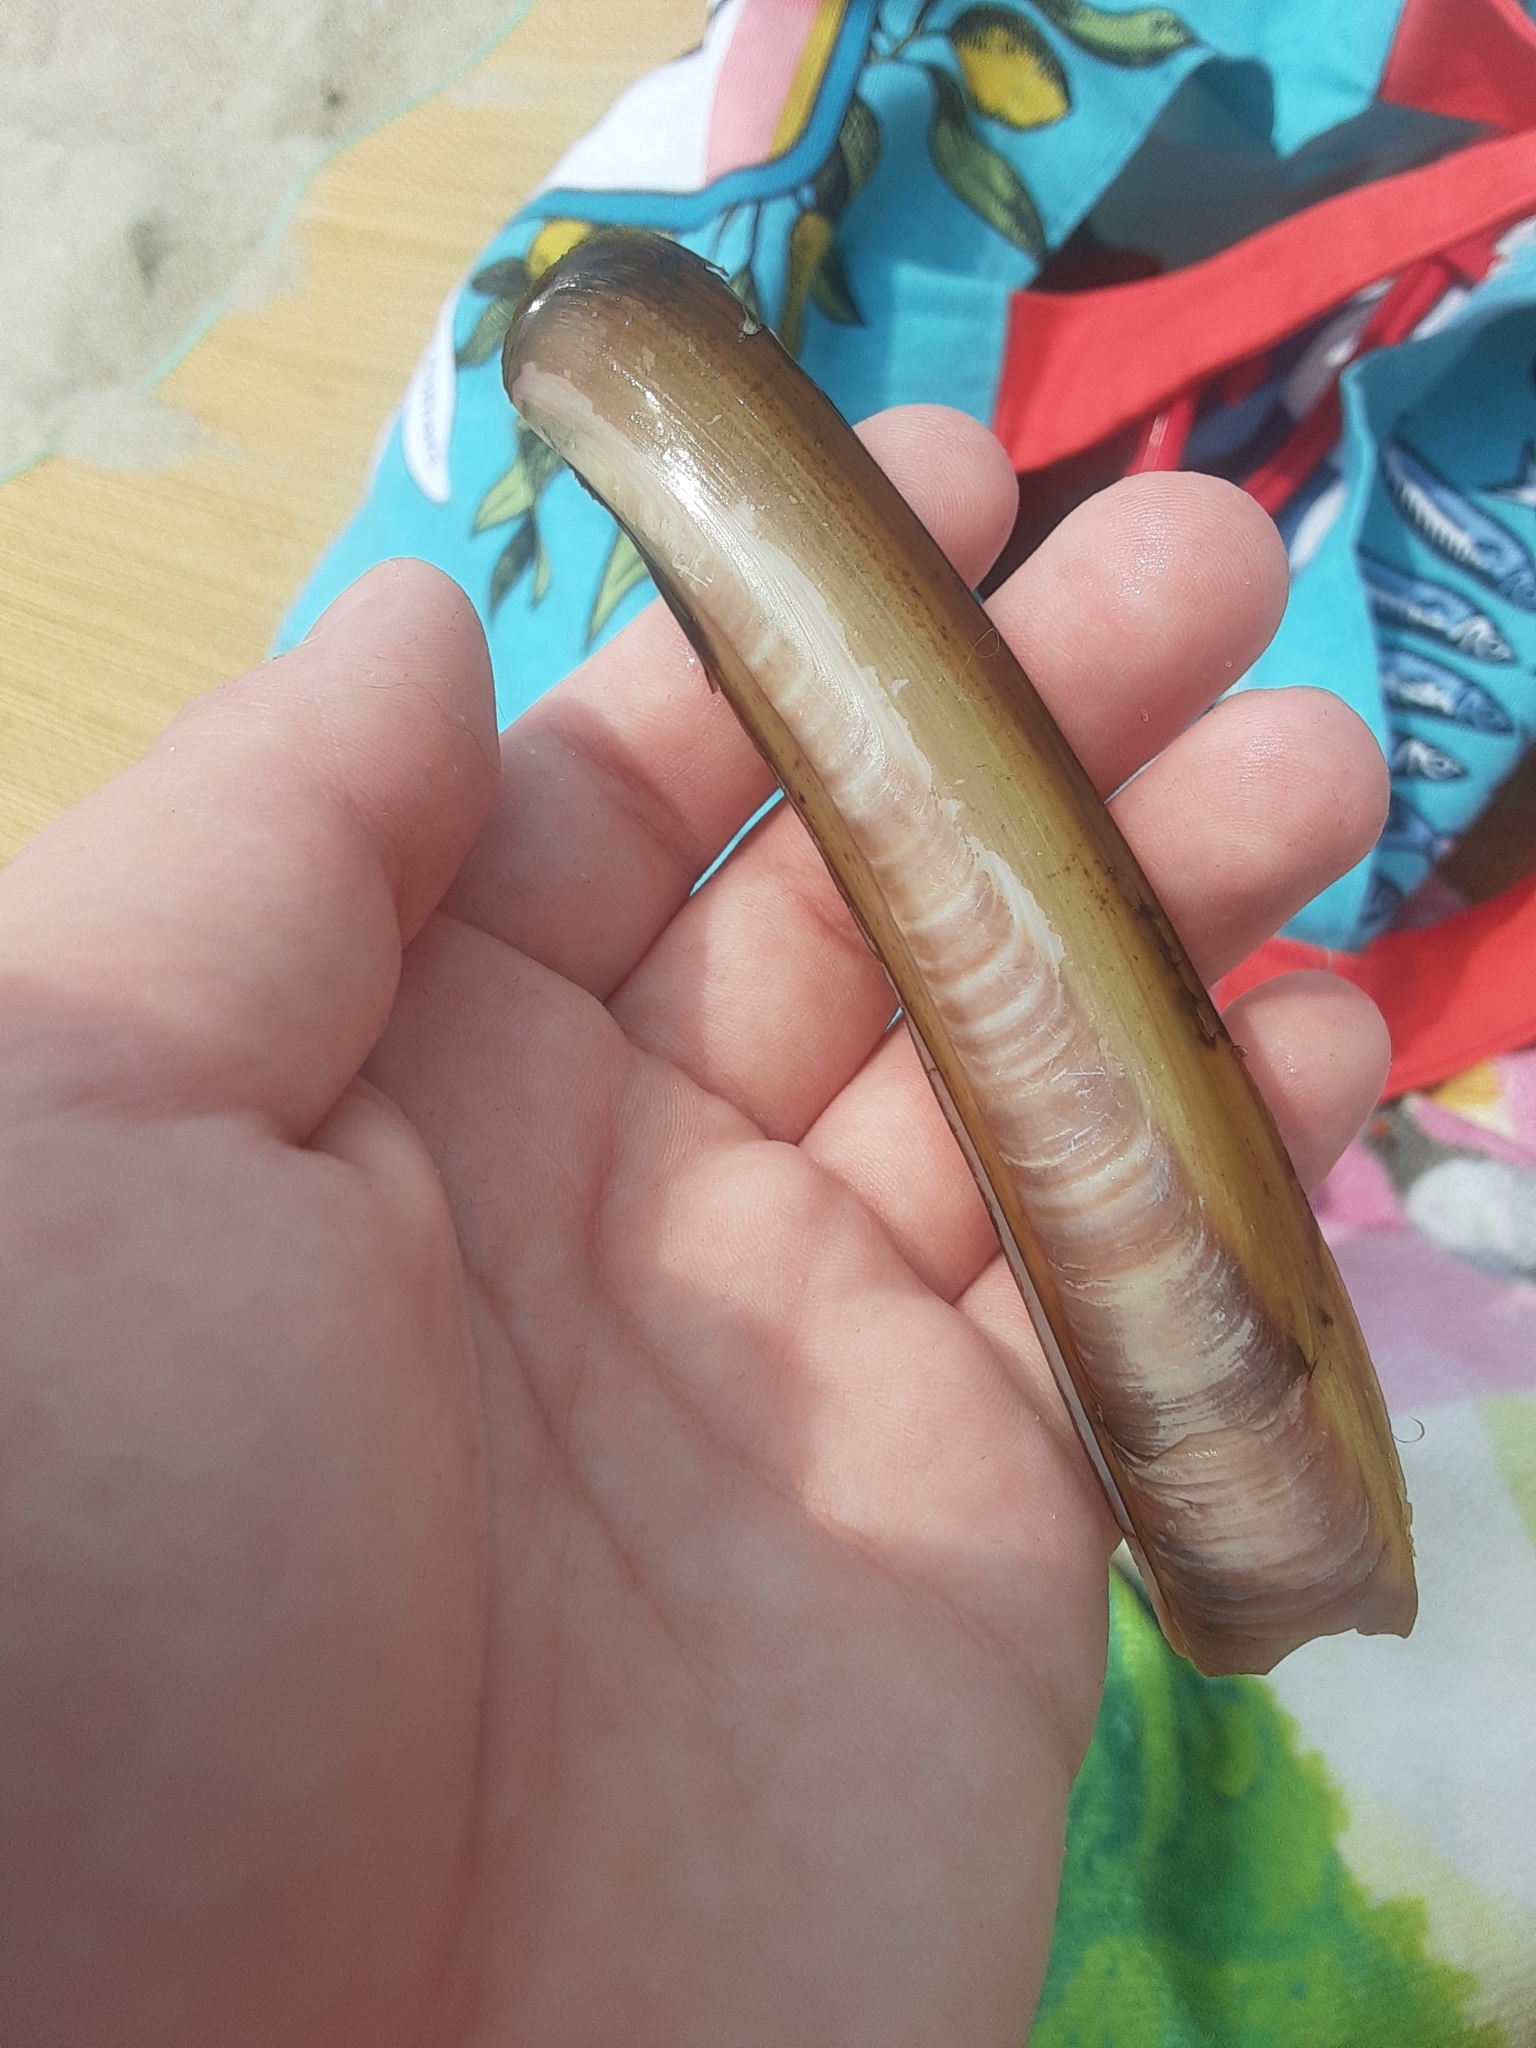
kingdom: Animalia
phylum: Mollusca
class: Bivalvia
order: Adapedonta
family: Pharidae
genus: Ensis
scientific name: Ensis leei
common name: American jack knife clam
